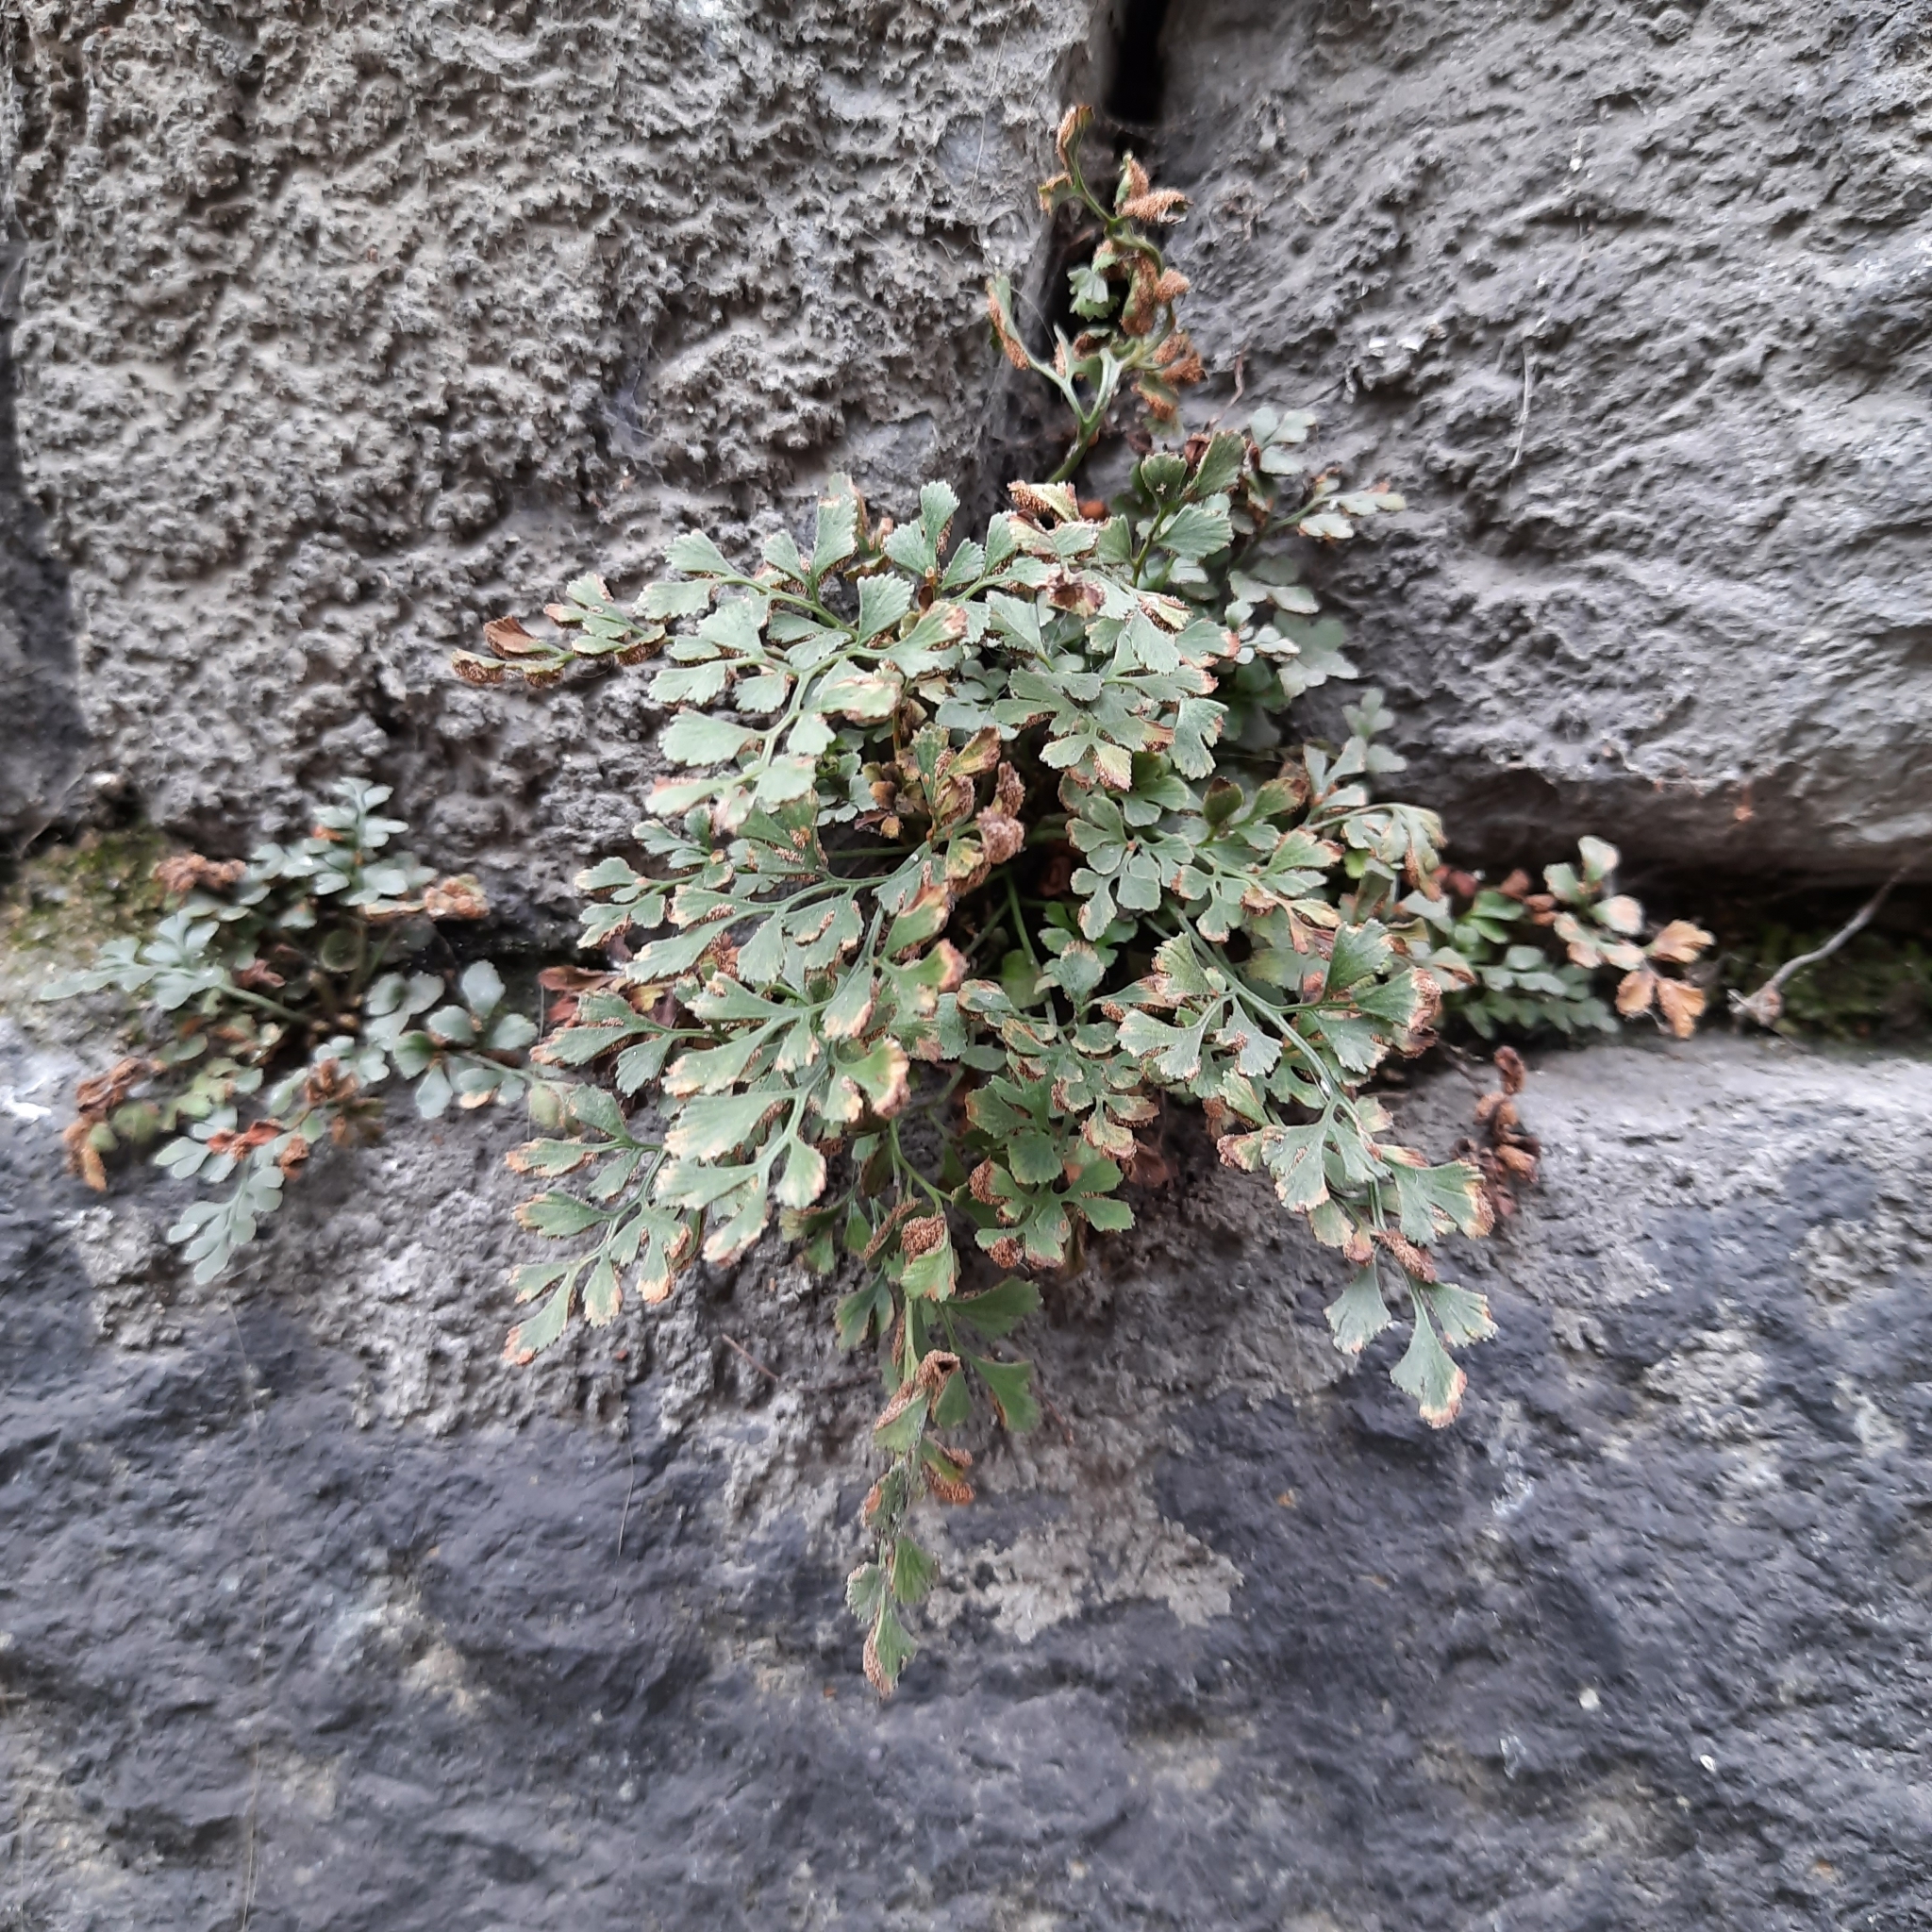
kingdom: Plantae
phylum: Tracheophyta
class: Polypodiopsida
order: Polypodiales
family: Aspleniaceae
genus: Asplenium
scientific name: Asplenium ruta-muraria
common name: Wall-rue
